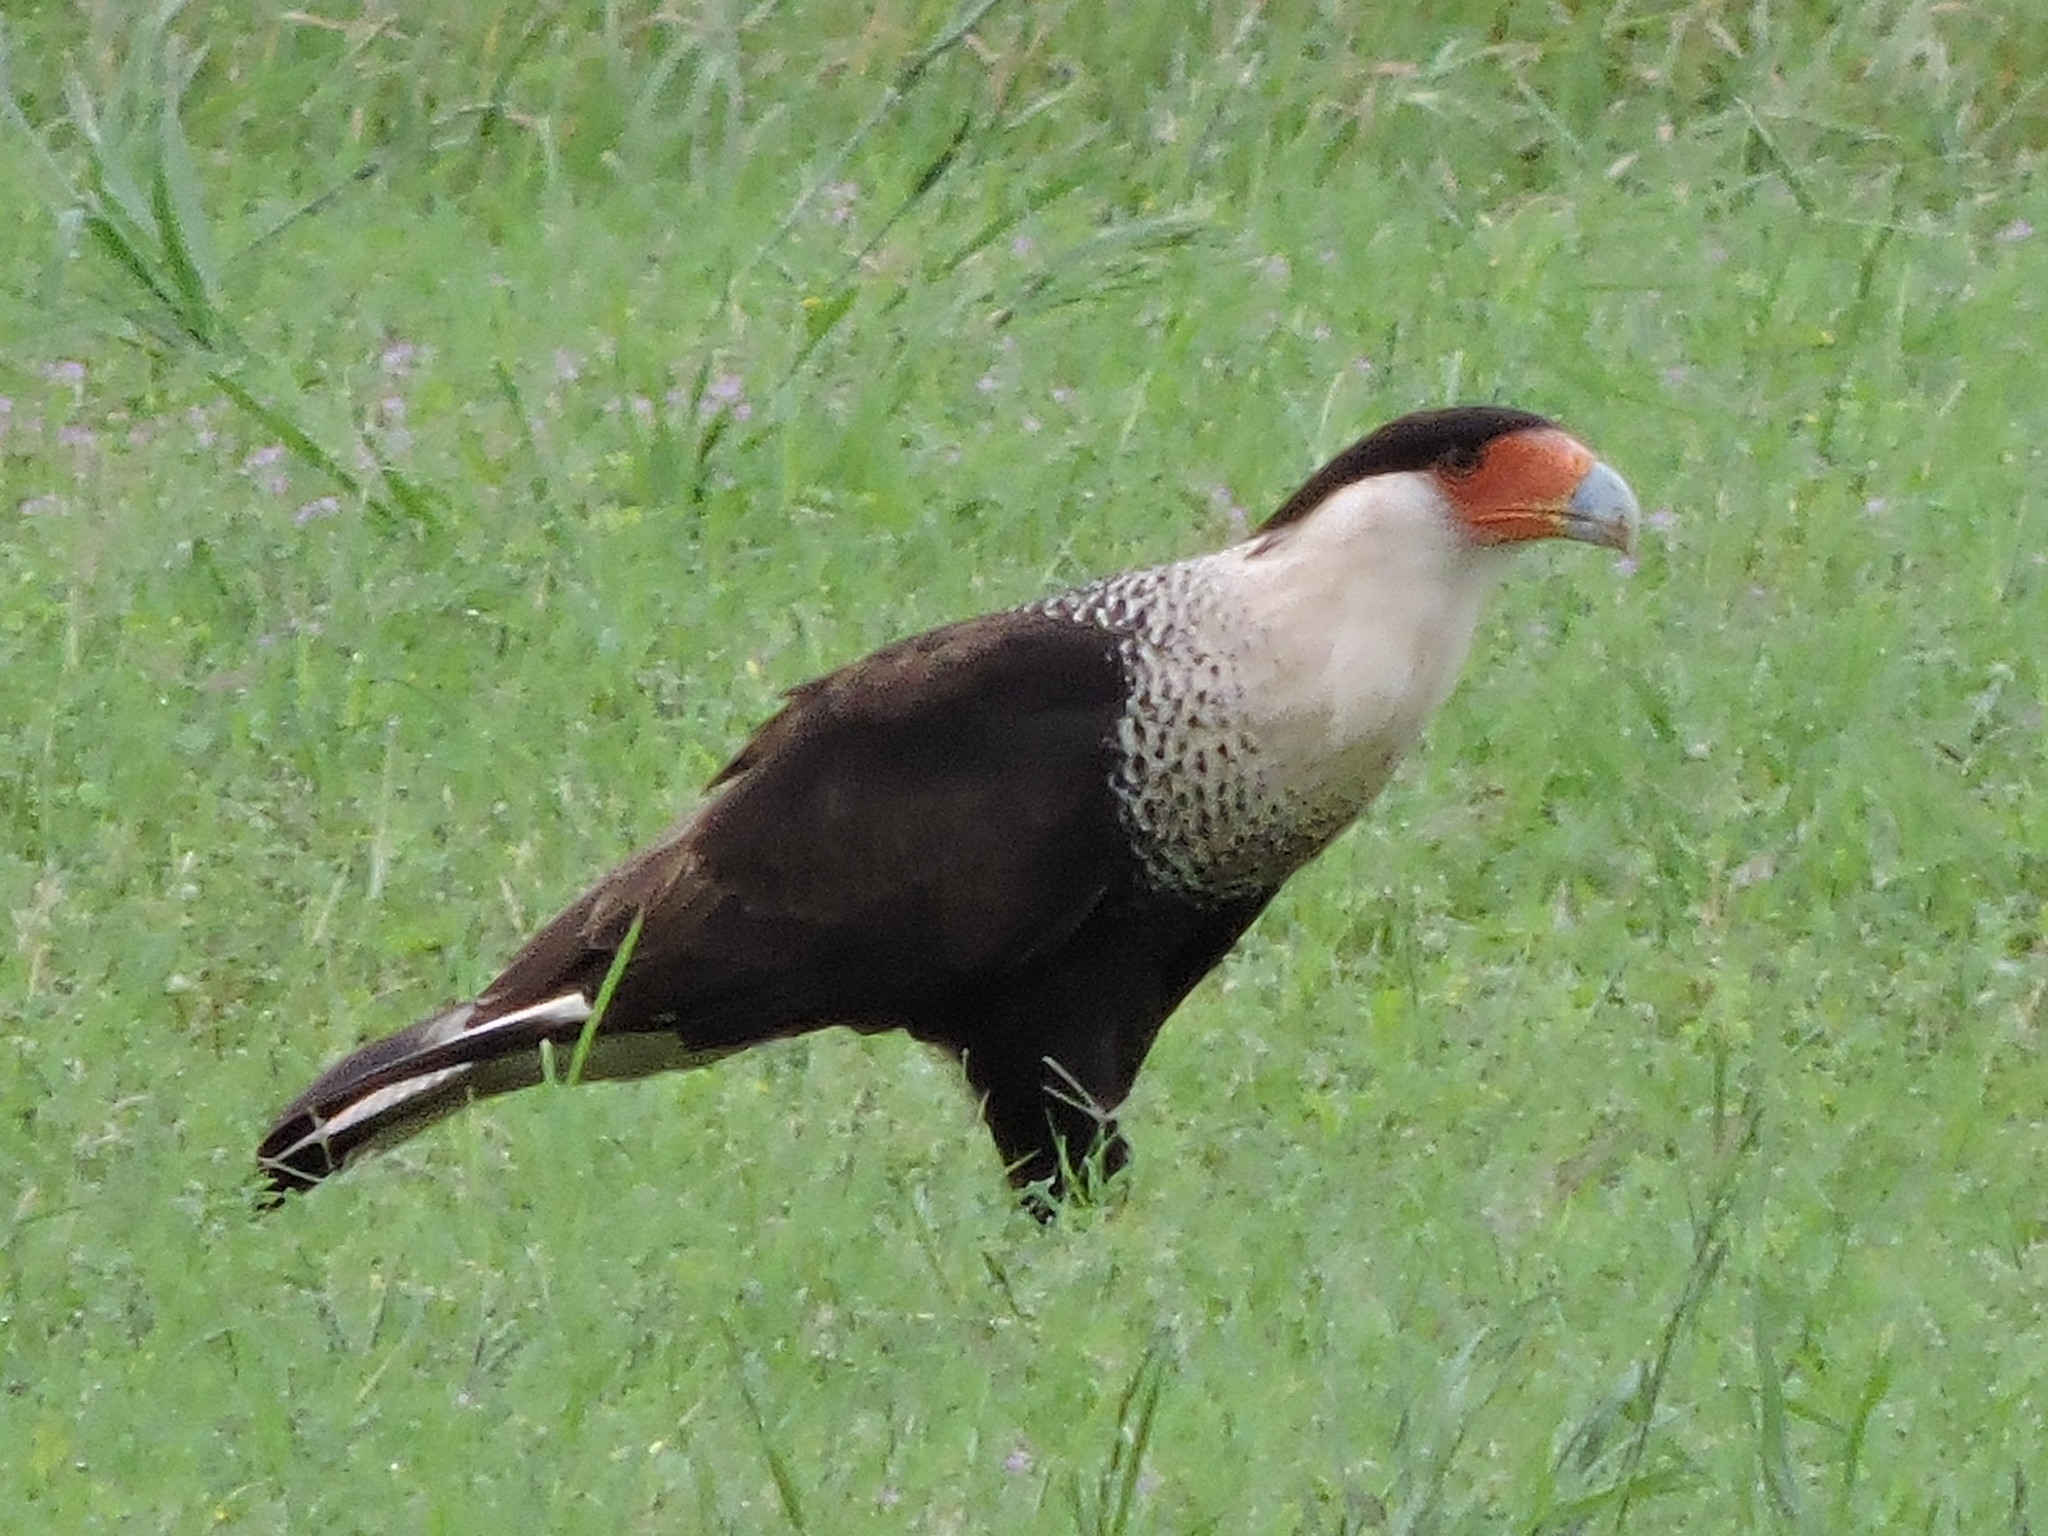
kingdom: Animalia
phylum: Chordata
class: Aves
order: Falconiformes
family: Falconidae
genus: Caracara
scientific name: Caracara plancus
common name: Southern caracara
